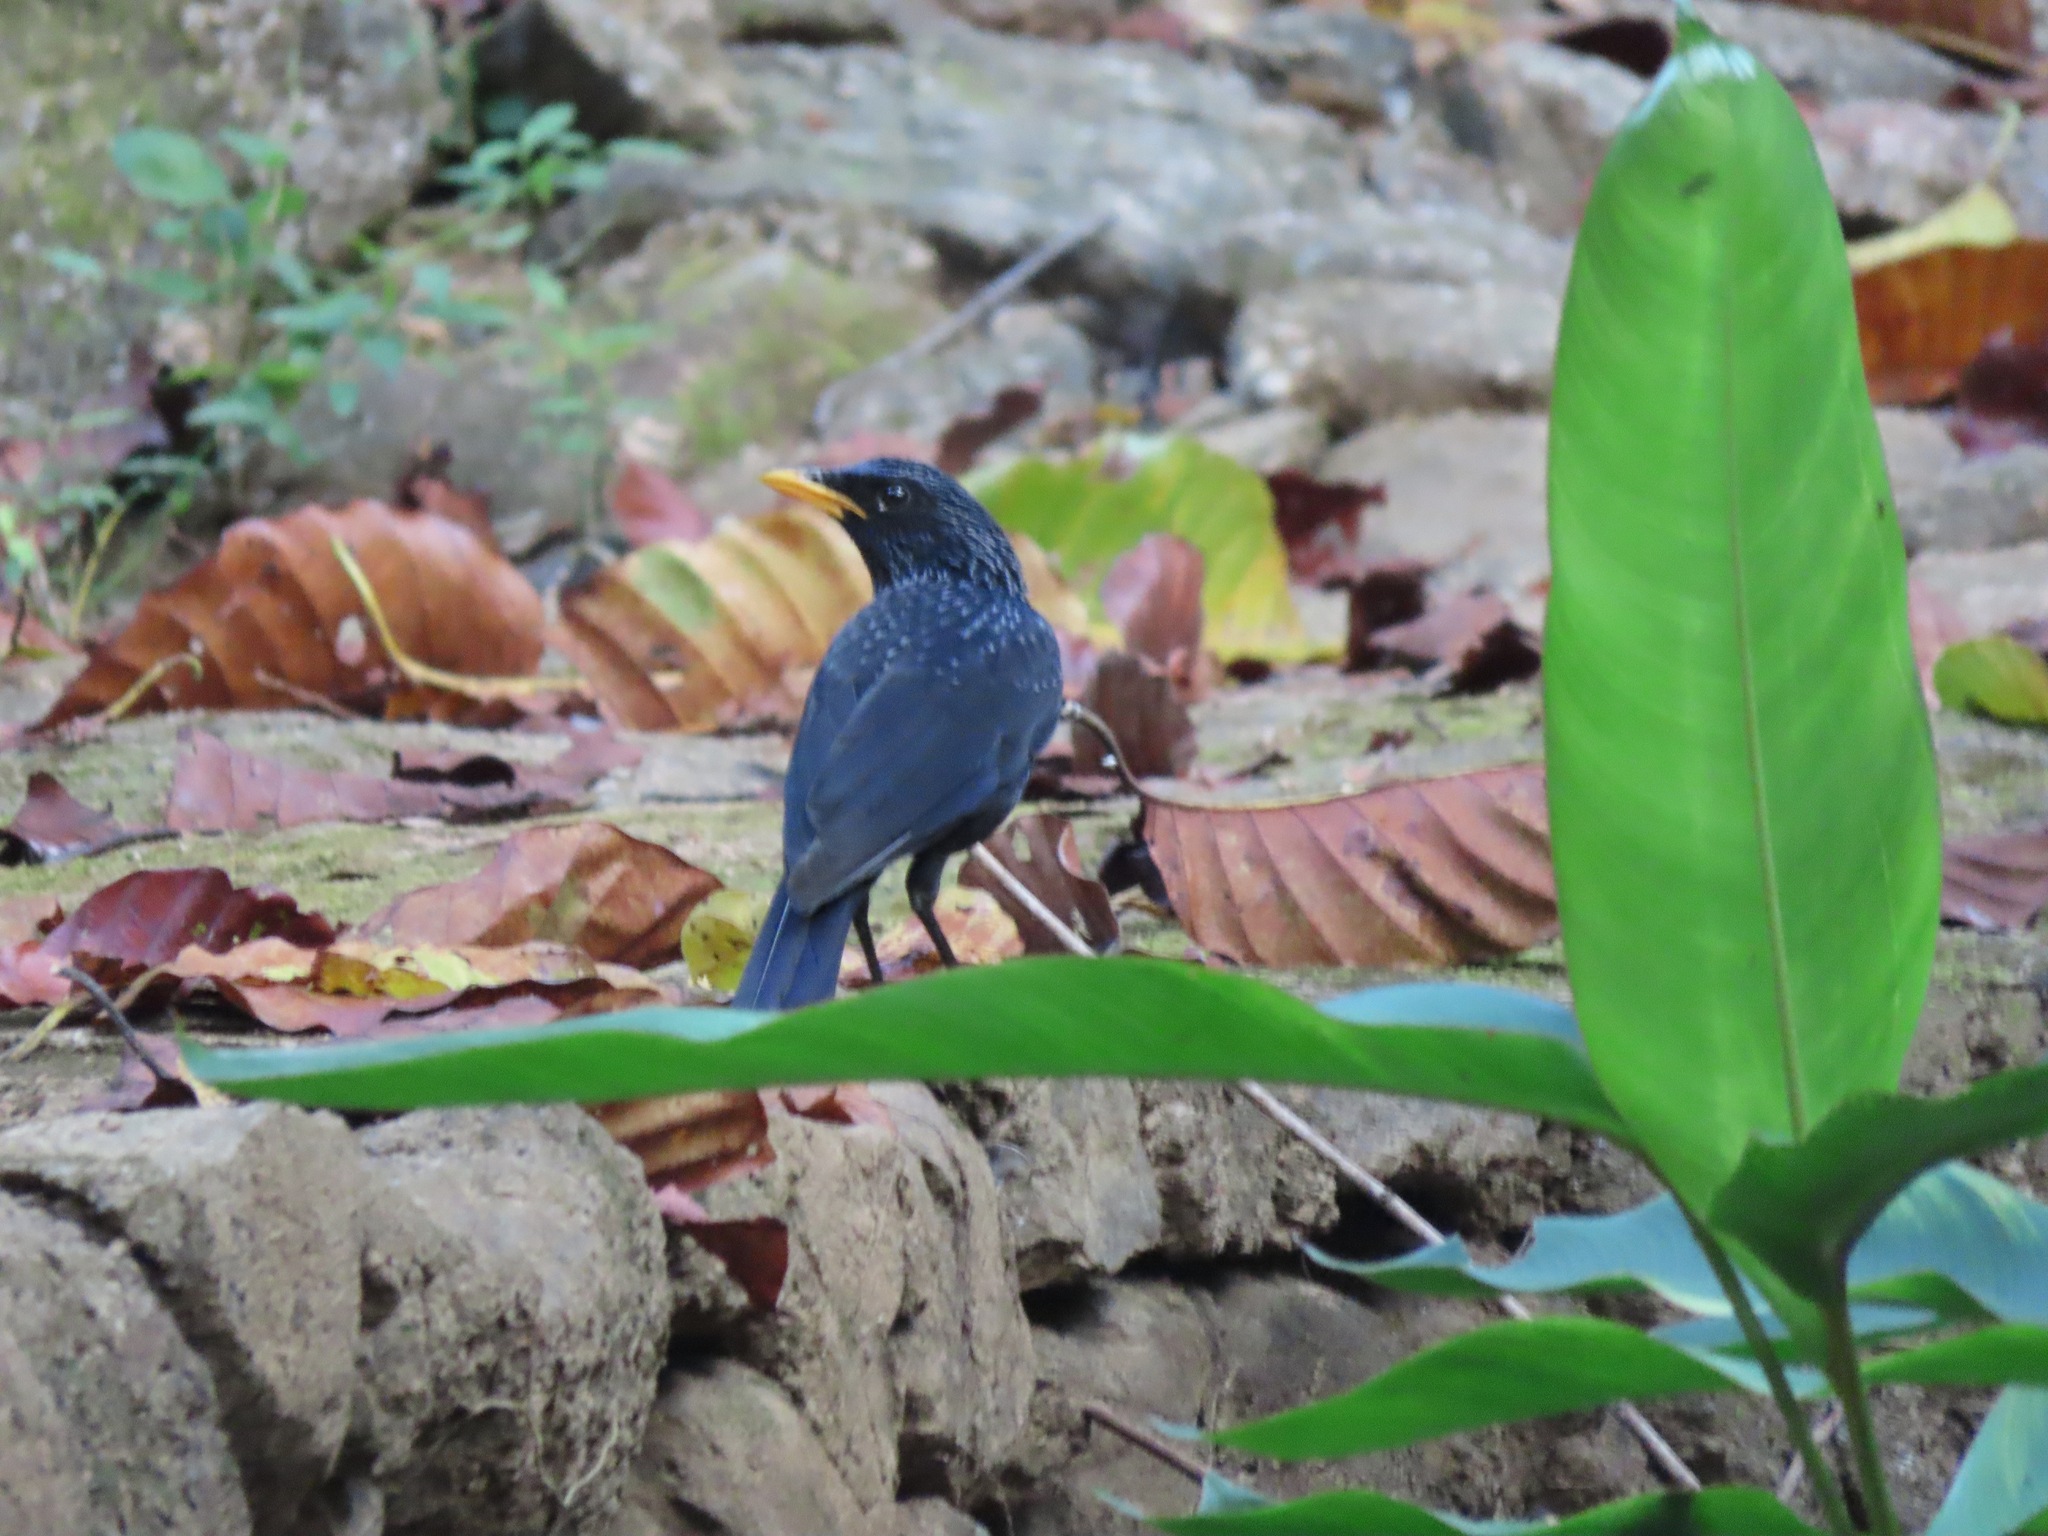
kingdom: Animalia
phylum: Chordata
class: Aves
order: Passeriformes
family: Muscicapidae
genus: Myophonus
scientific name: Myophonus caeruleus
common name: Blue whistling-thrush
